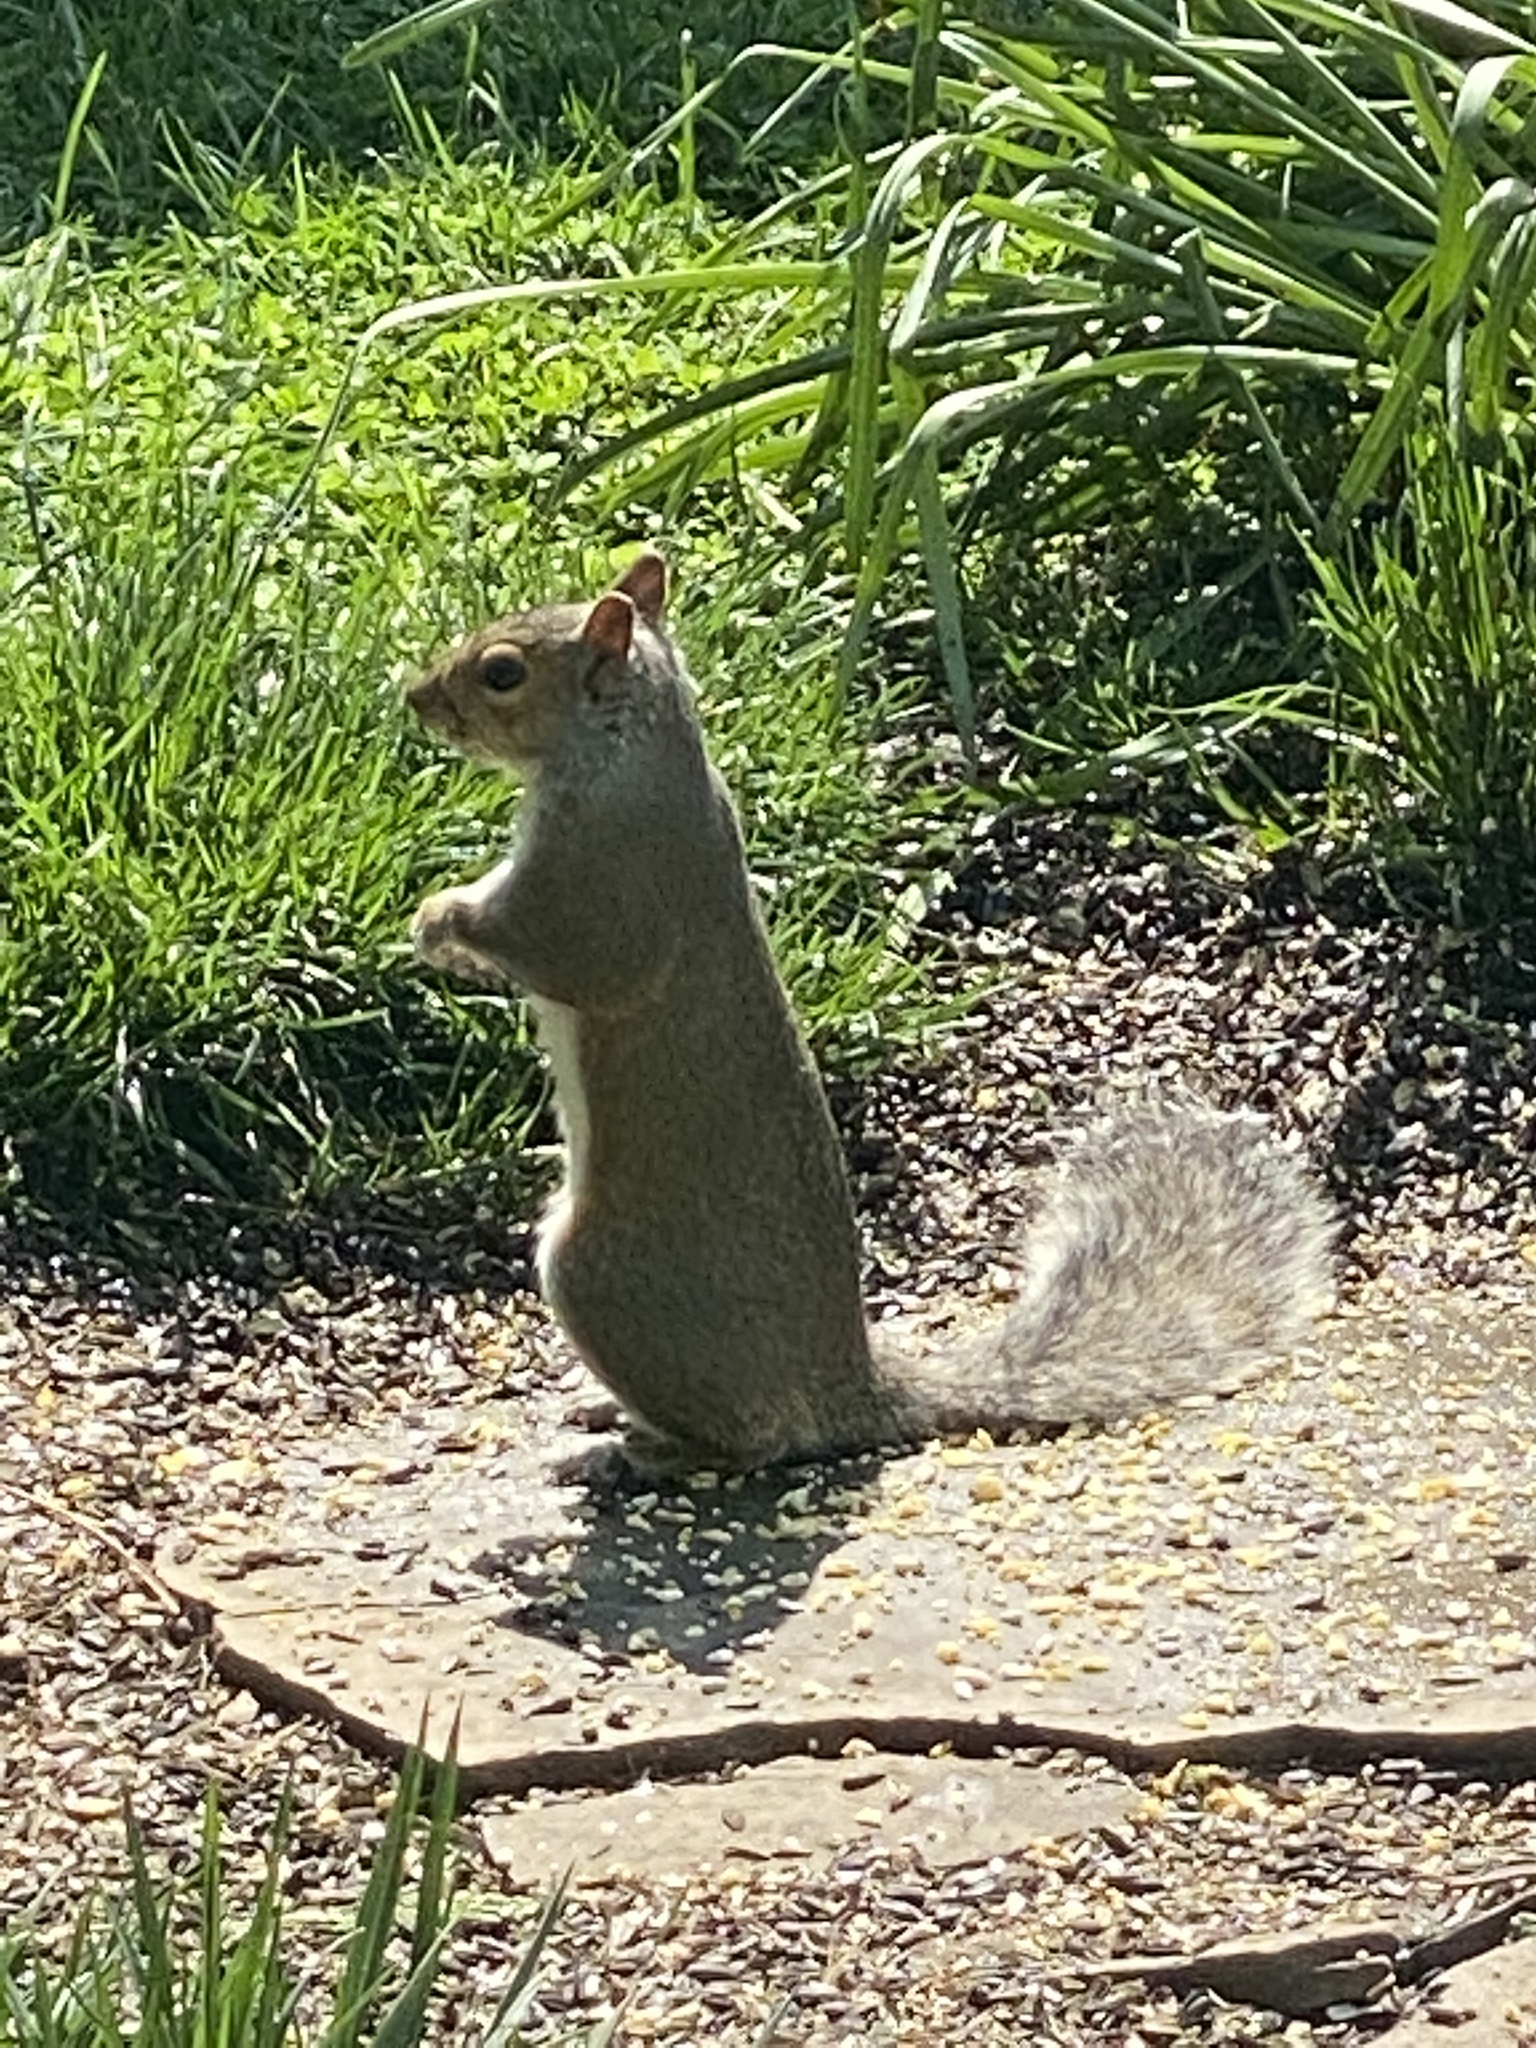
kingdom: Animalia
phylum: Chordata
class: Mammalia
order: Rodentia
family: Sciuridae
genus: Sciurus
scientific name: Sciurus carolinensis
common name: Eastern gray squirrel
